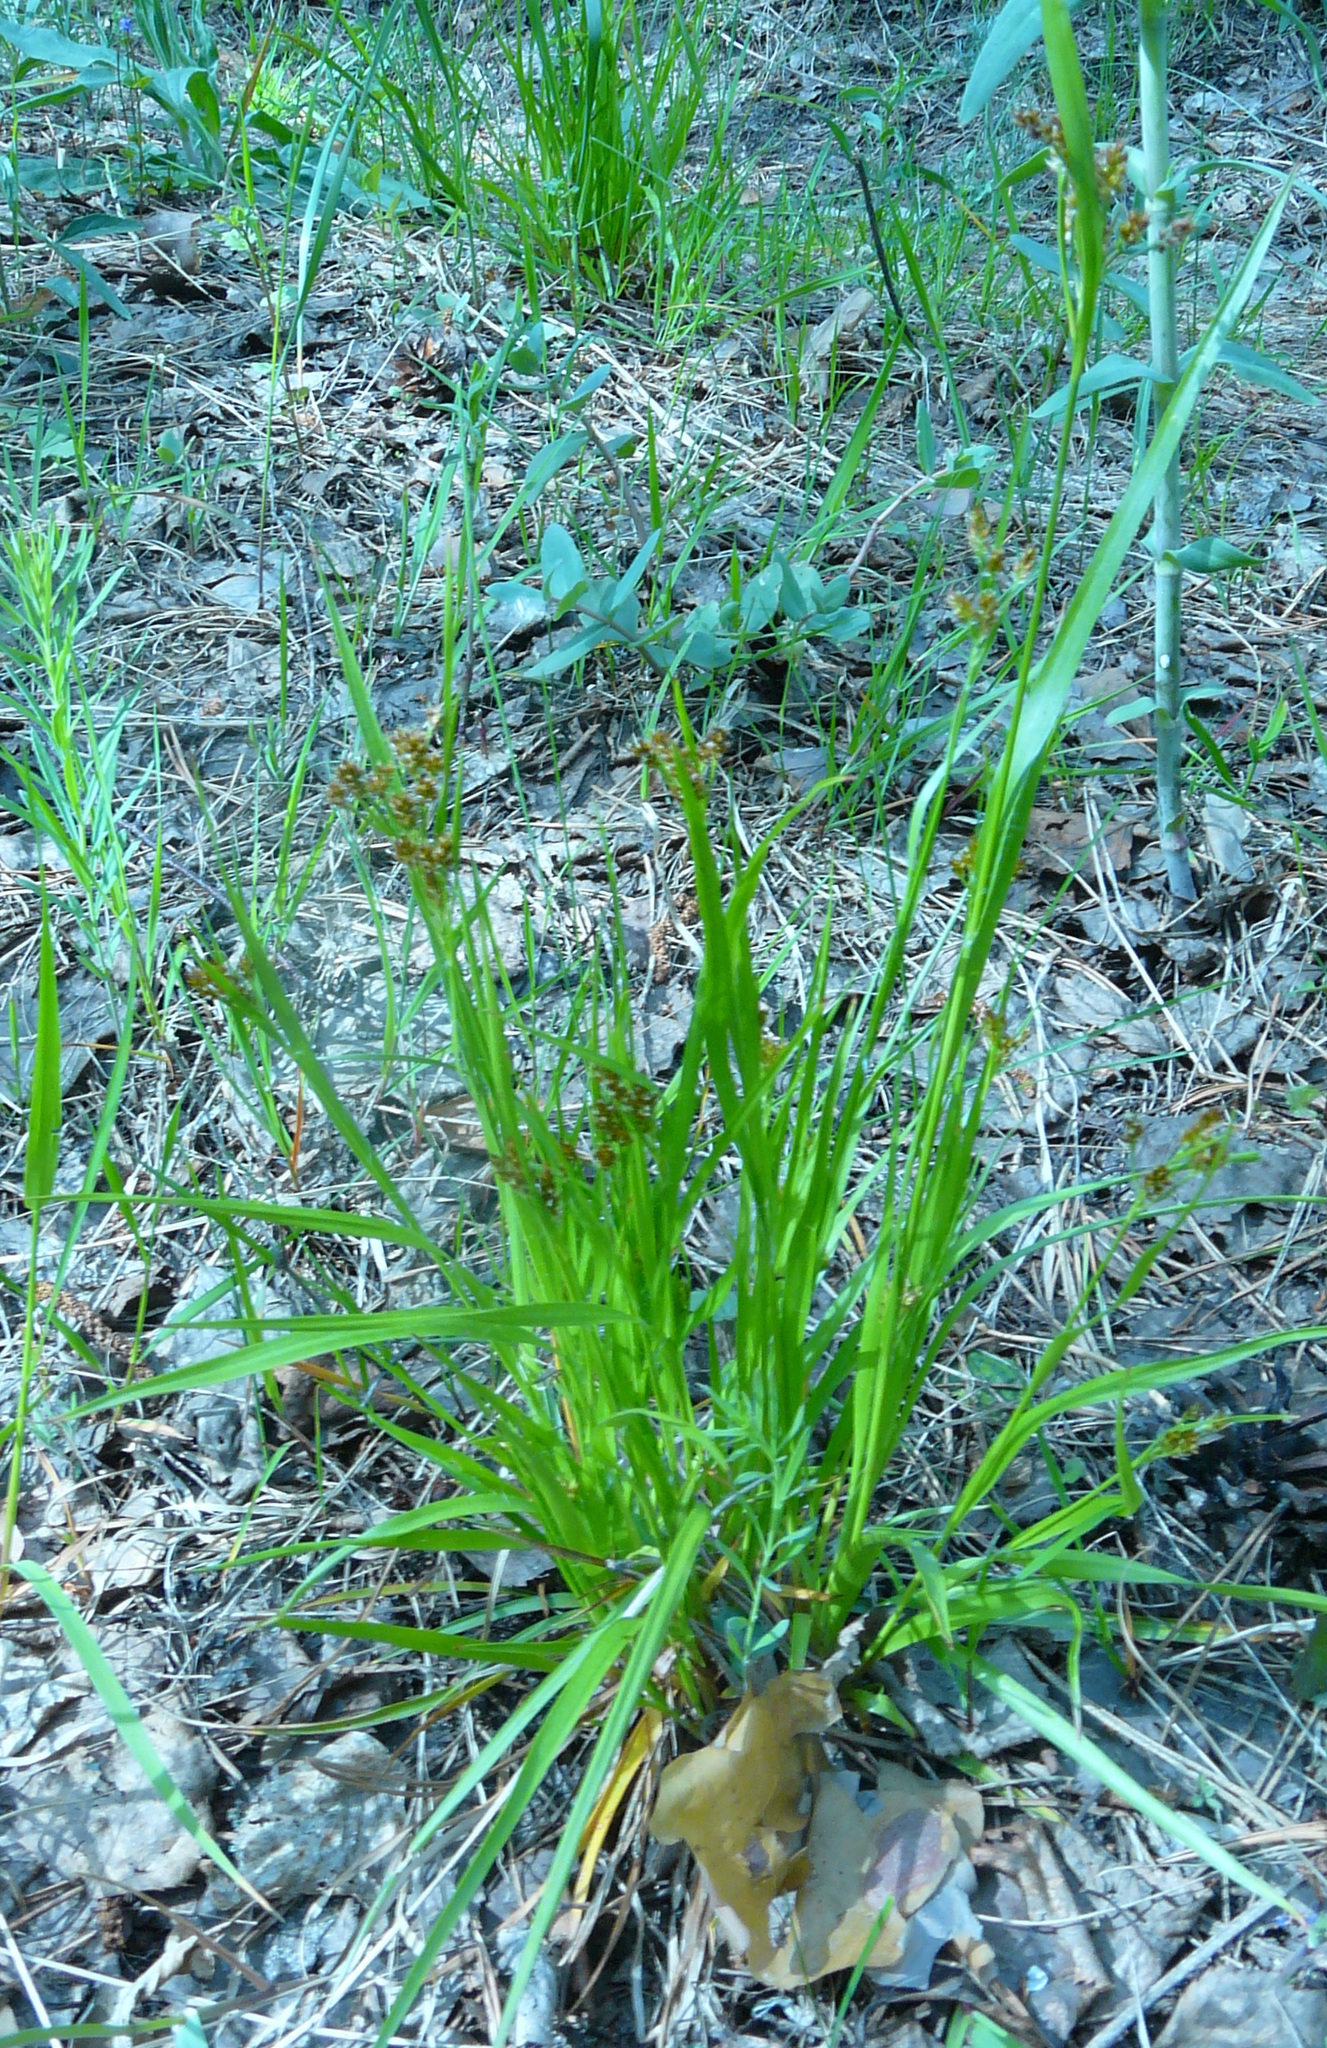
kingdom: Plantae
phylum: Tracheophyta
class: Liliopsida
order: Poales
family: Juncaceae
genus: Luzula
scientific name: Luzula pallescens
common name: Fen wood-rush
